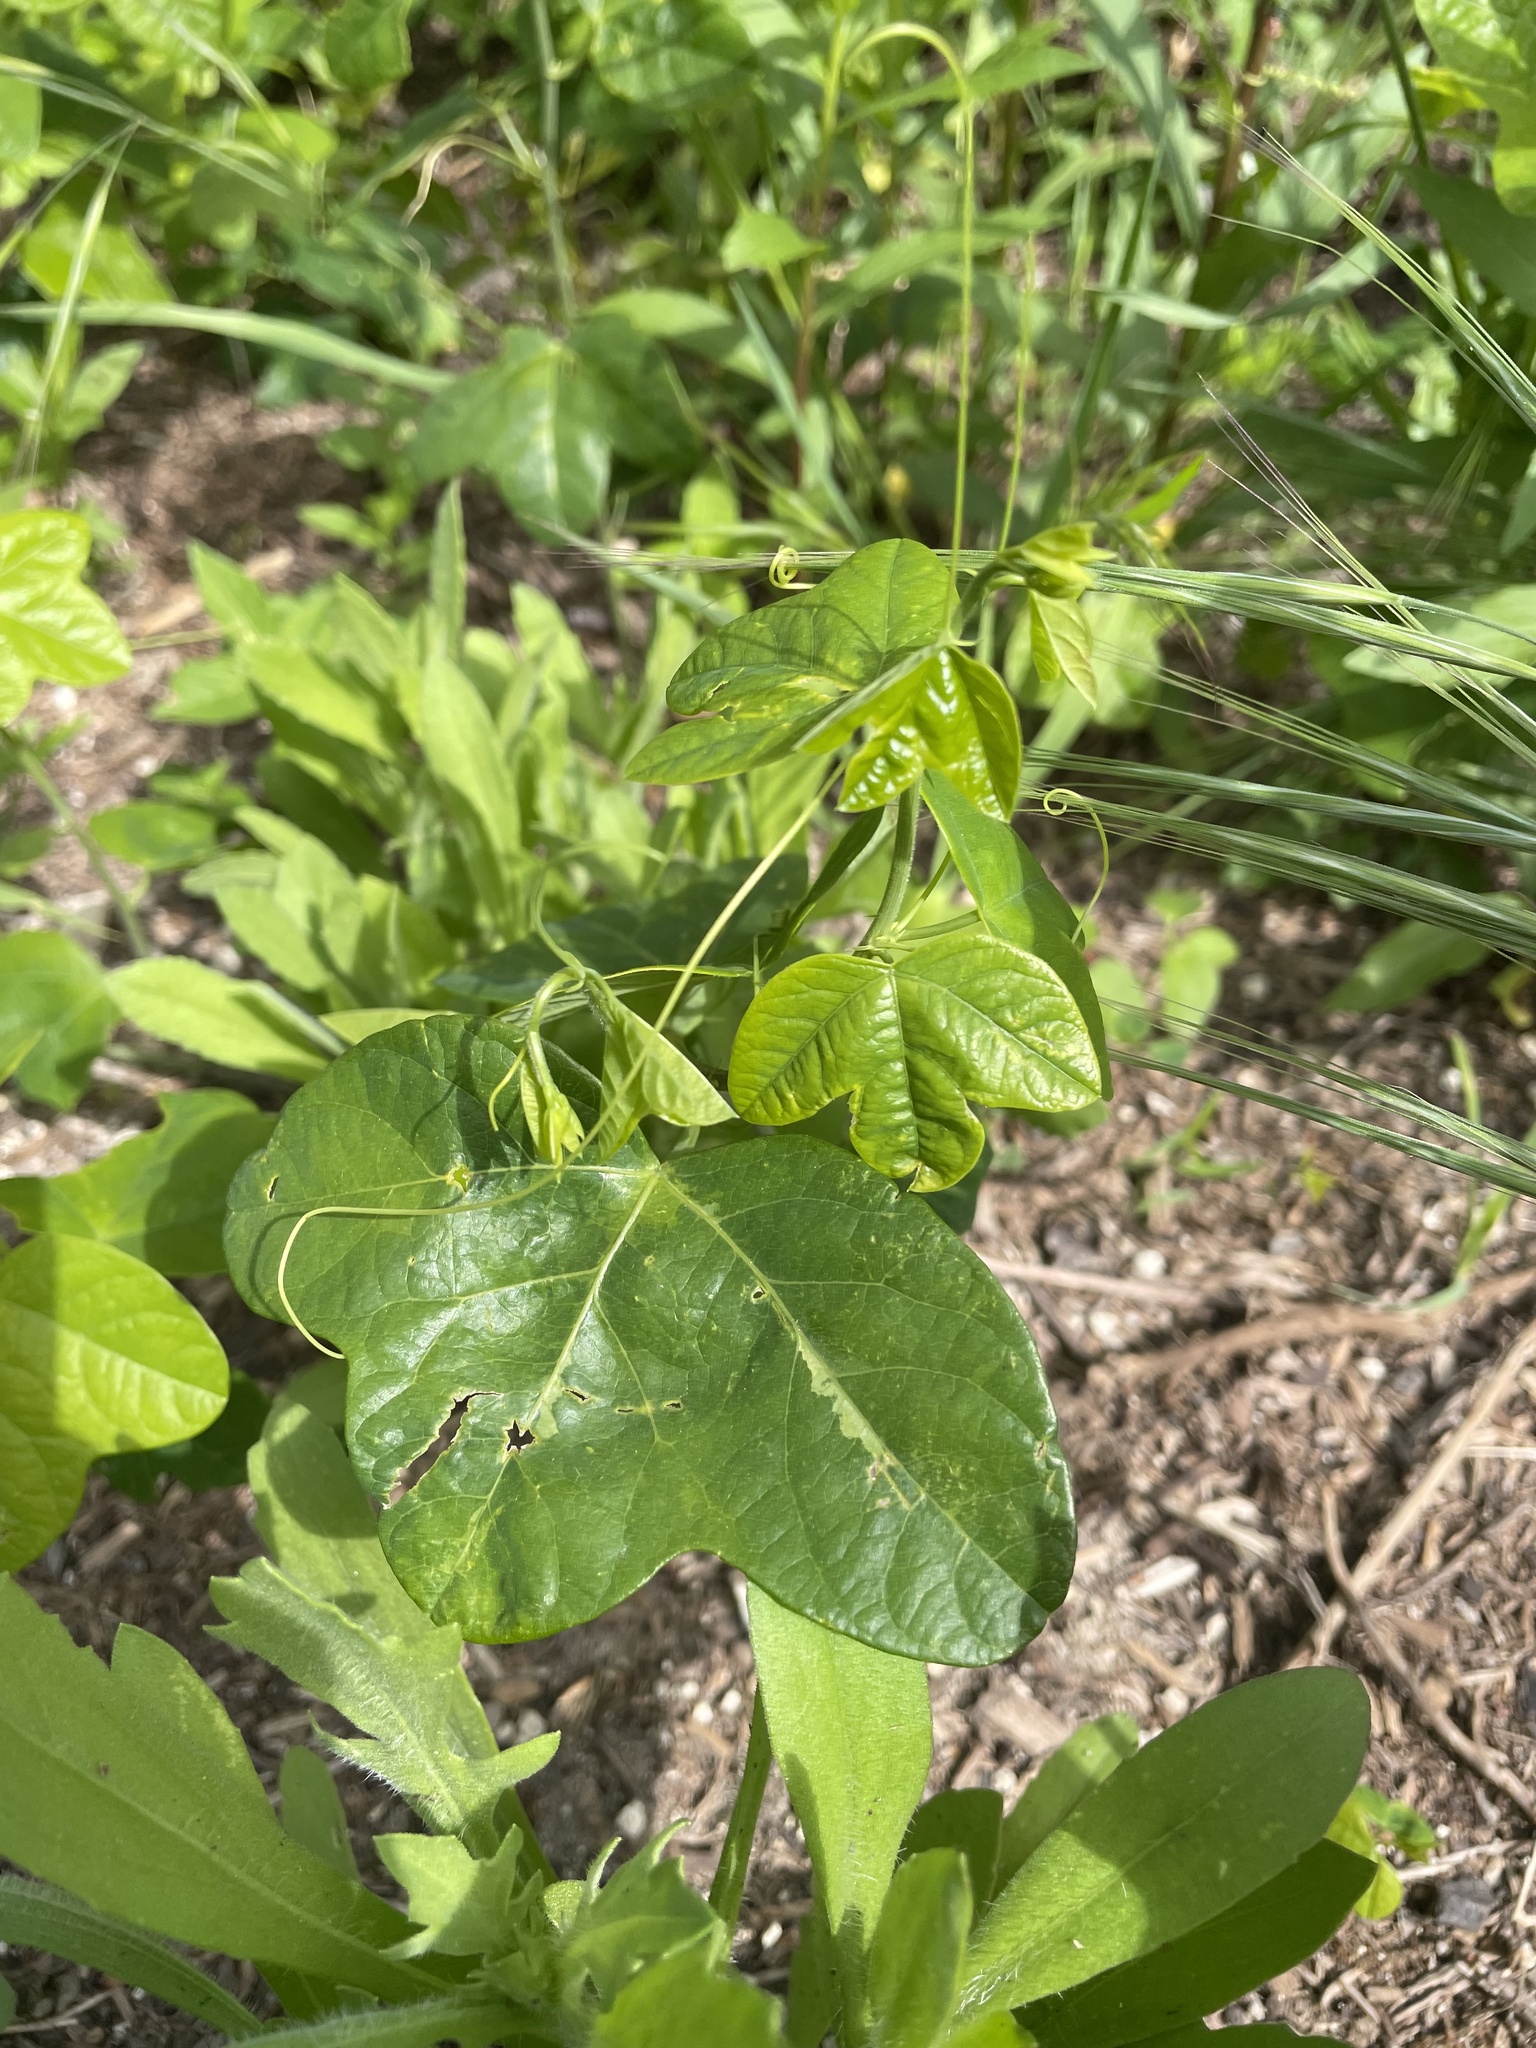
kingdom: Plantae
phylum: Tracheophyta
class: Magnoliopsida
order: Malpighiales
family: Passifloraceae
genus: Passiflora
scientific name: Passiflora lutea
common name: Yellow passionflower
